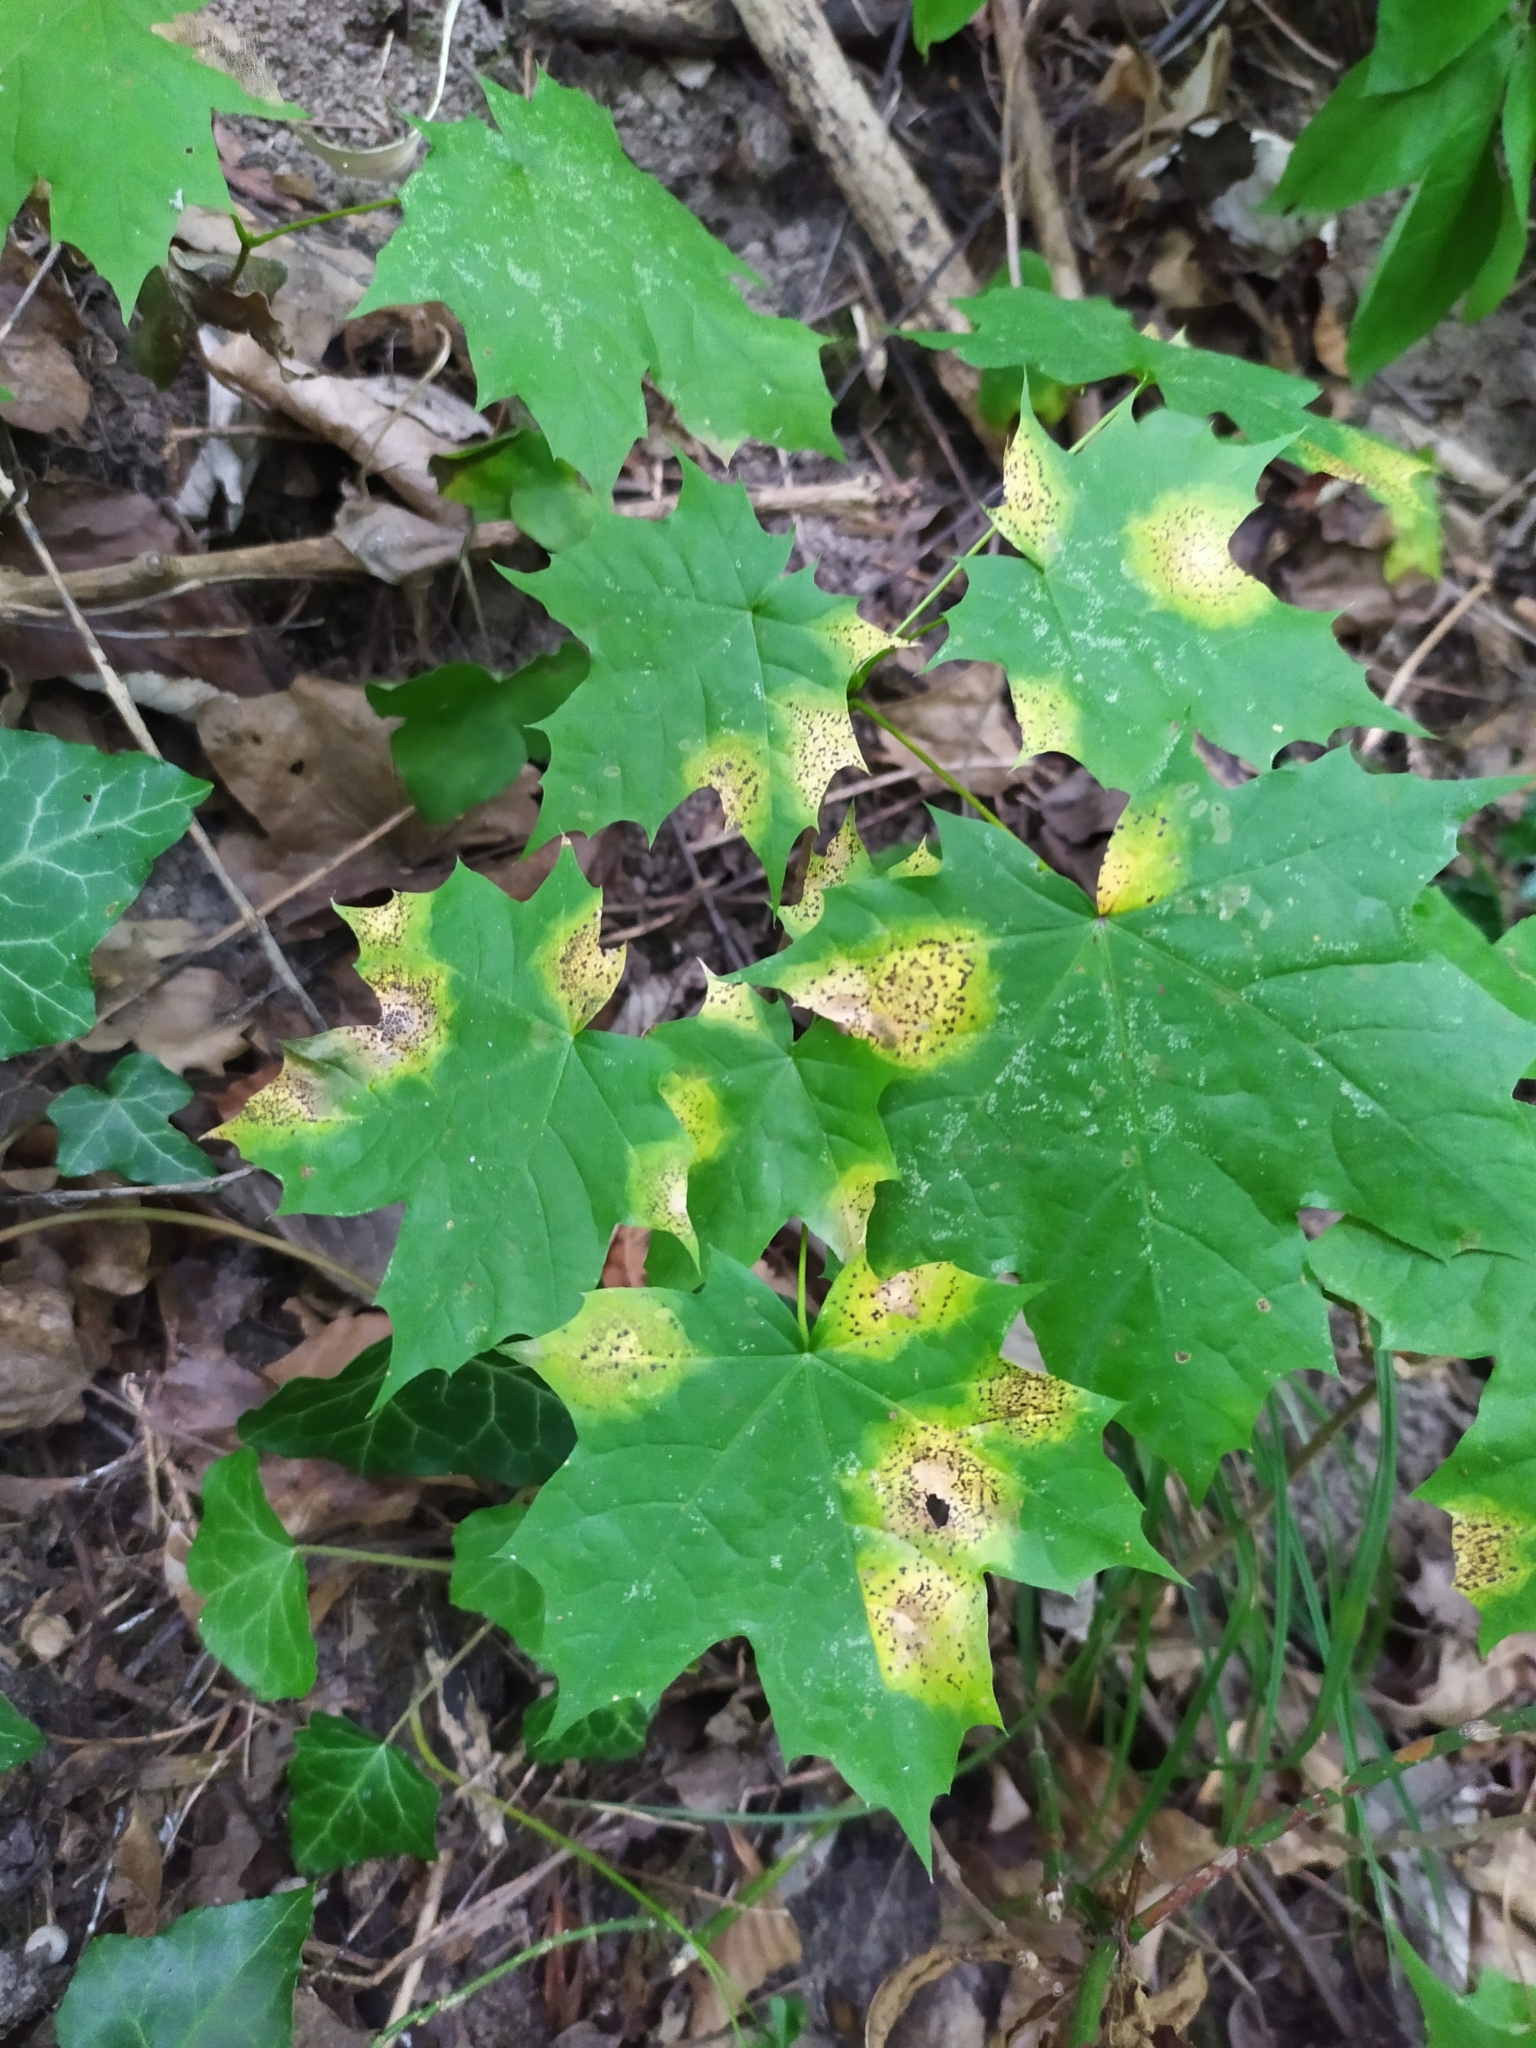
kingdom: Fungi
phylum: Ascomycota
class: Leotiomycetes
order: Rhytismatales
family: Rhytismataceae
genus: Rhytisma
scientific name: Rhytisma acerinum
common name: European tar spot
